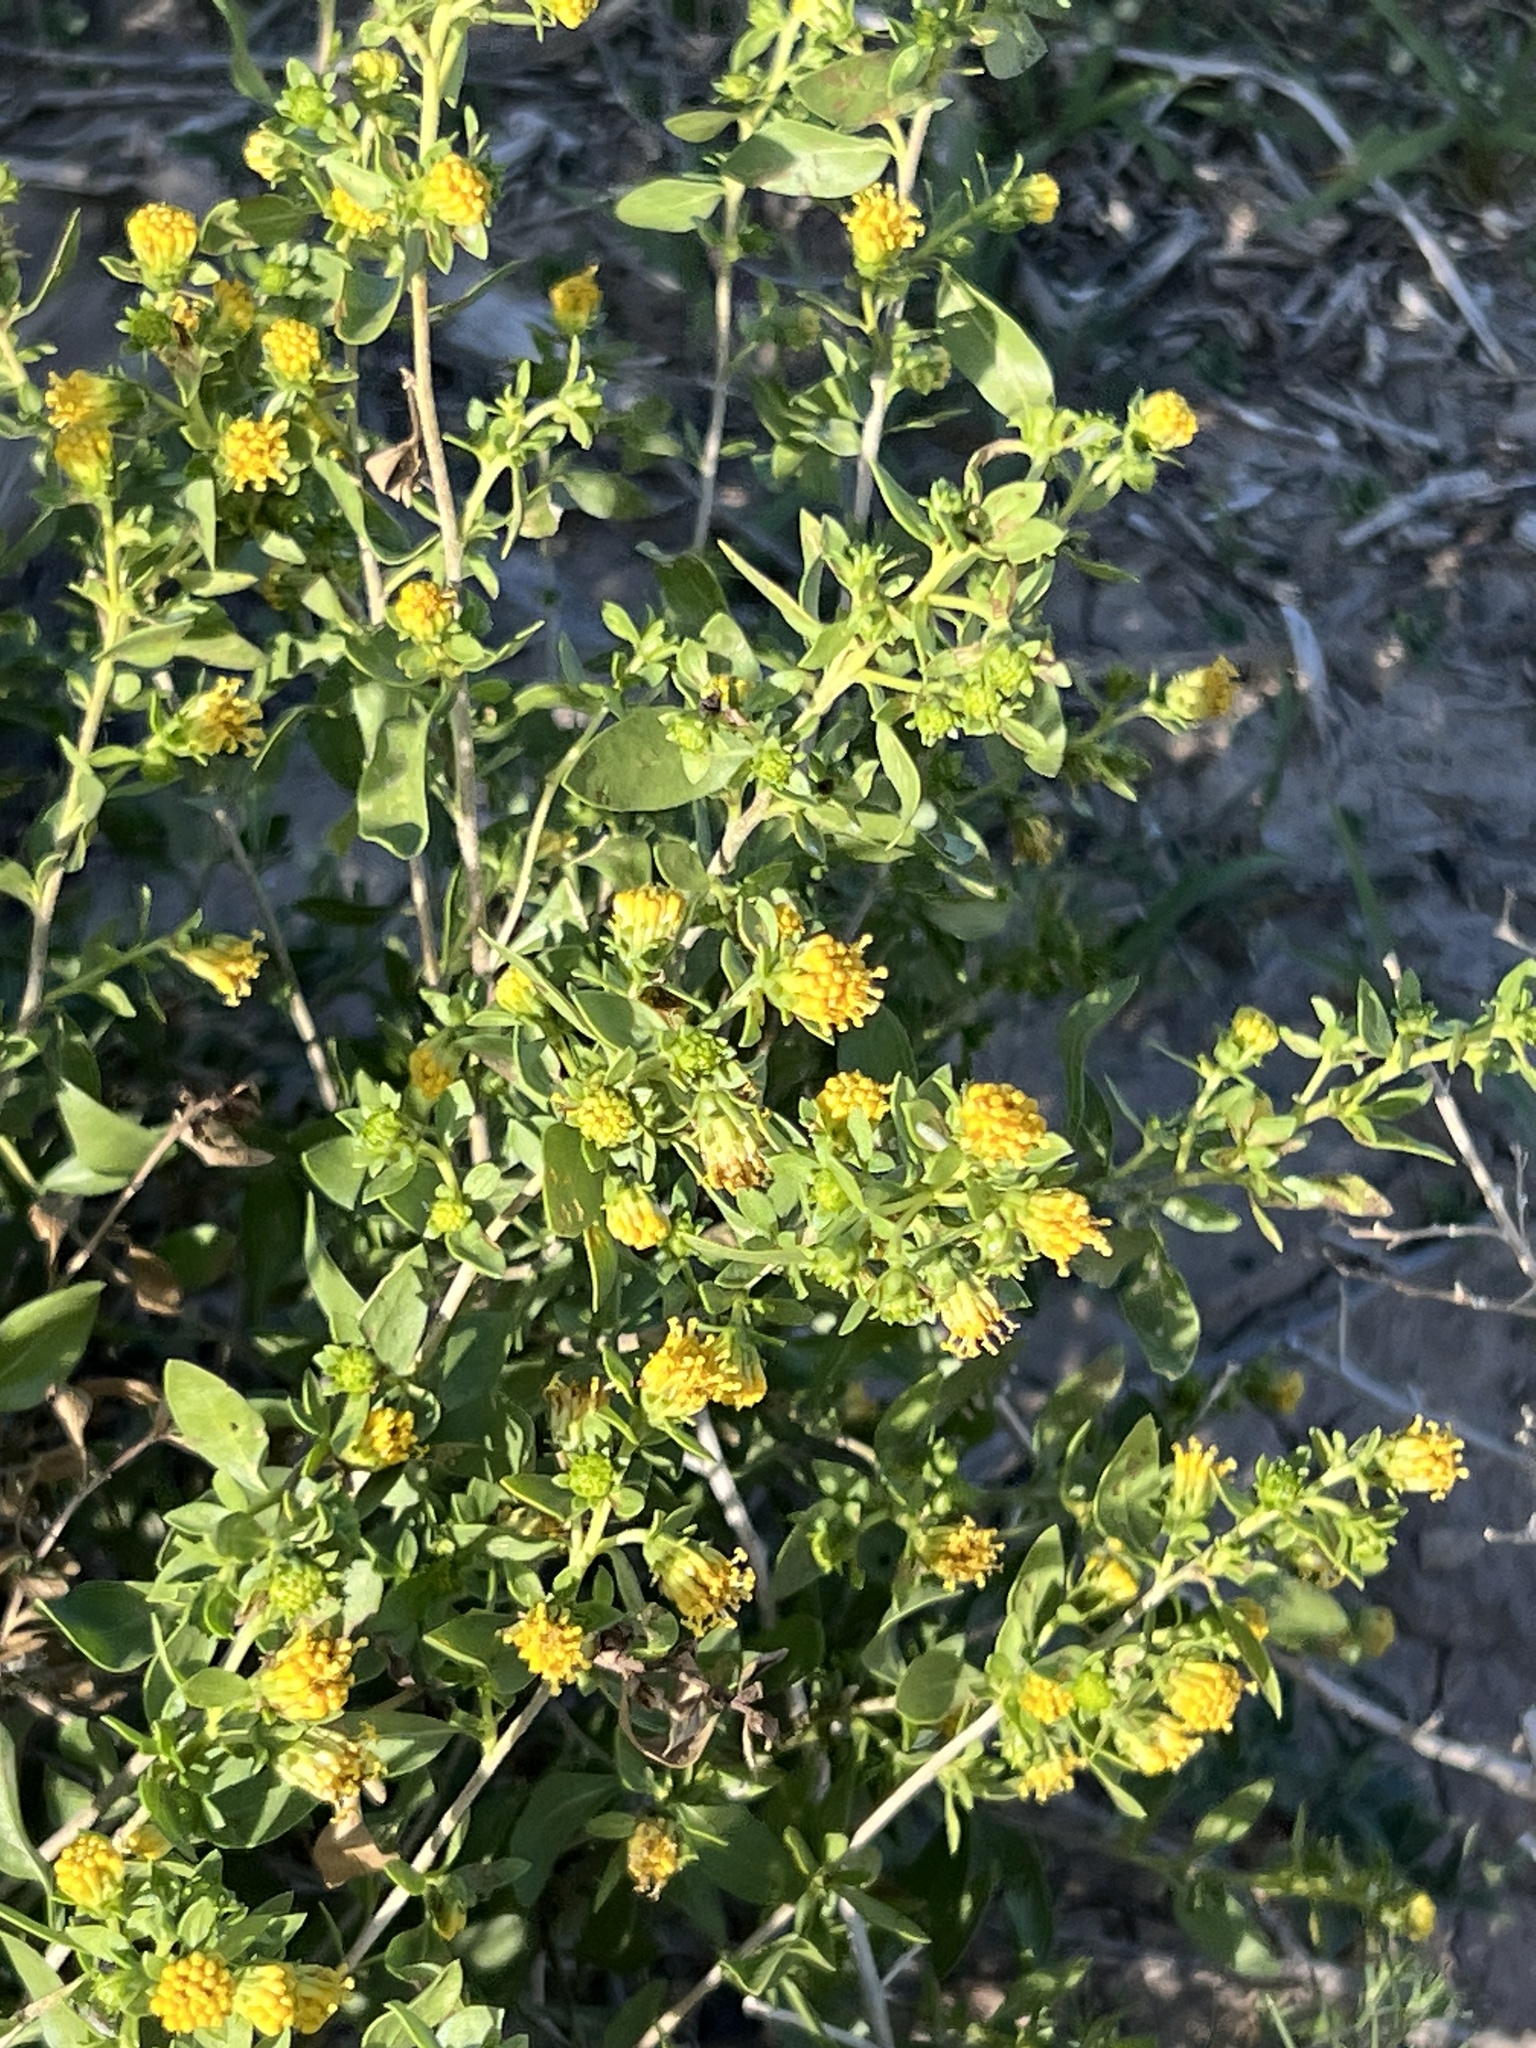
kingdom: Plantae
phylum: Tracheophyta
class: Magnoliopsida
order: Asterales
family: Asteraceae
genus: Flourensia
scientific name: Flourensia cernua
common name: Varnishbush
